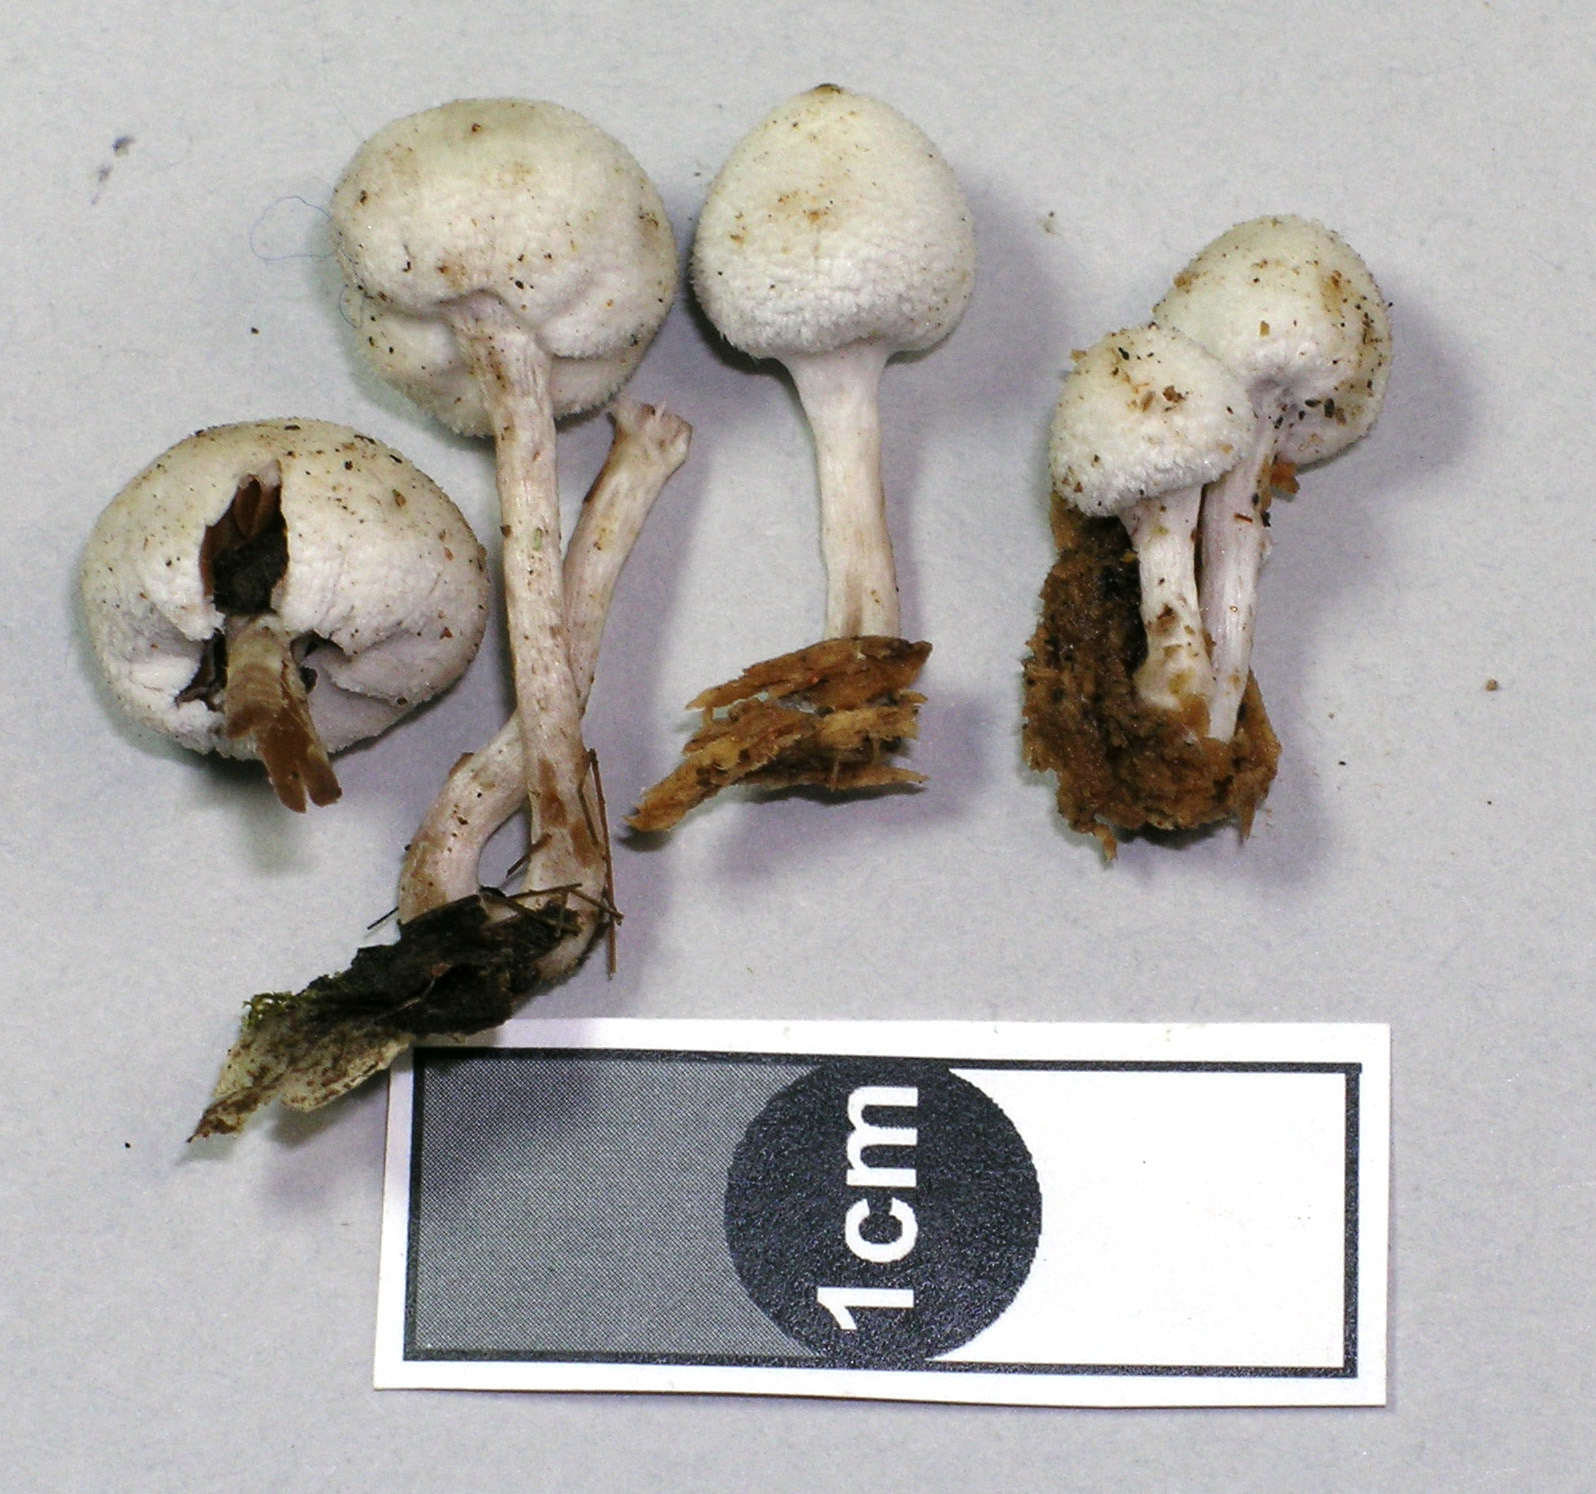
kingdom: Fungi
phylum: Basidiomycota
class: Agaricomycetes
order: Agaricales
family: Bolbitiaceae
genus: Tympanella
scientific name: Tympanella galanthina
